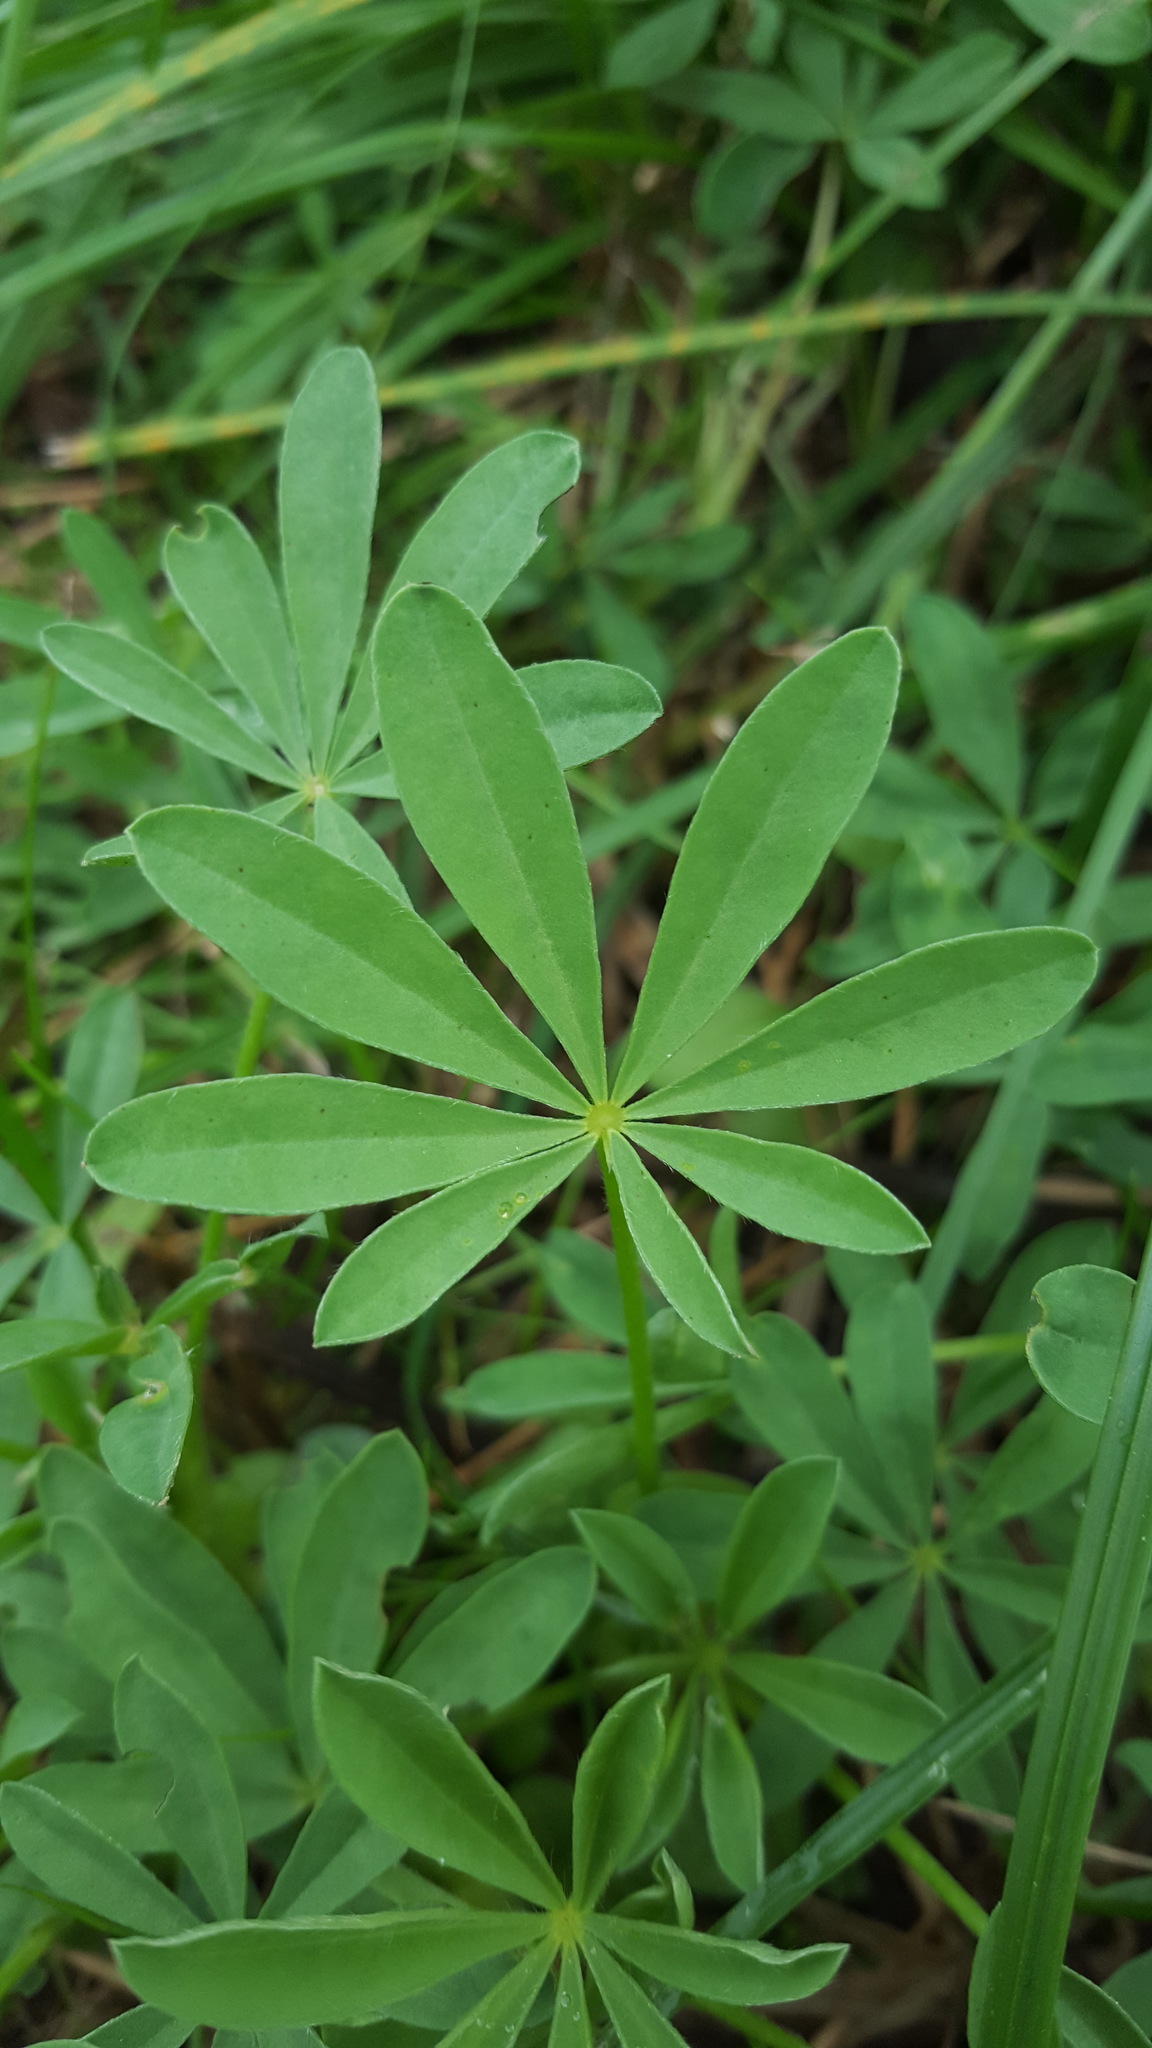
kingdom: Plantae
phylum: Tracheophyta
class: Magnoliopsida
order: Fabales
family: Fabaceae
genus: Lupinus
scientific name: Lupinus polyphyllus
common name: Garden lupin
